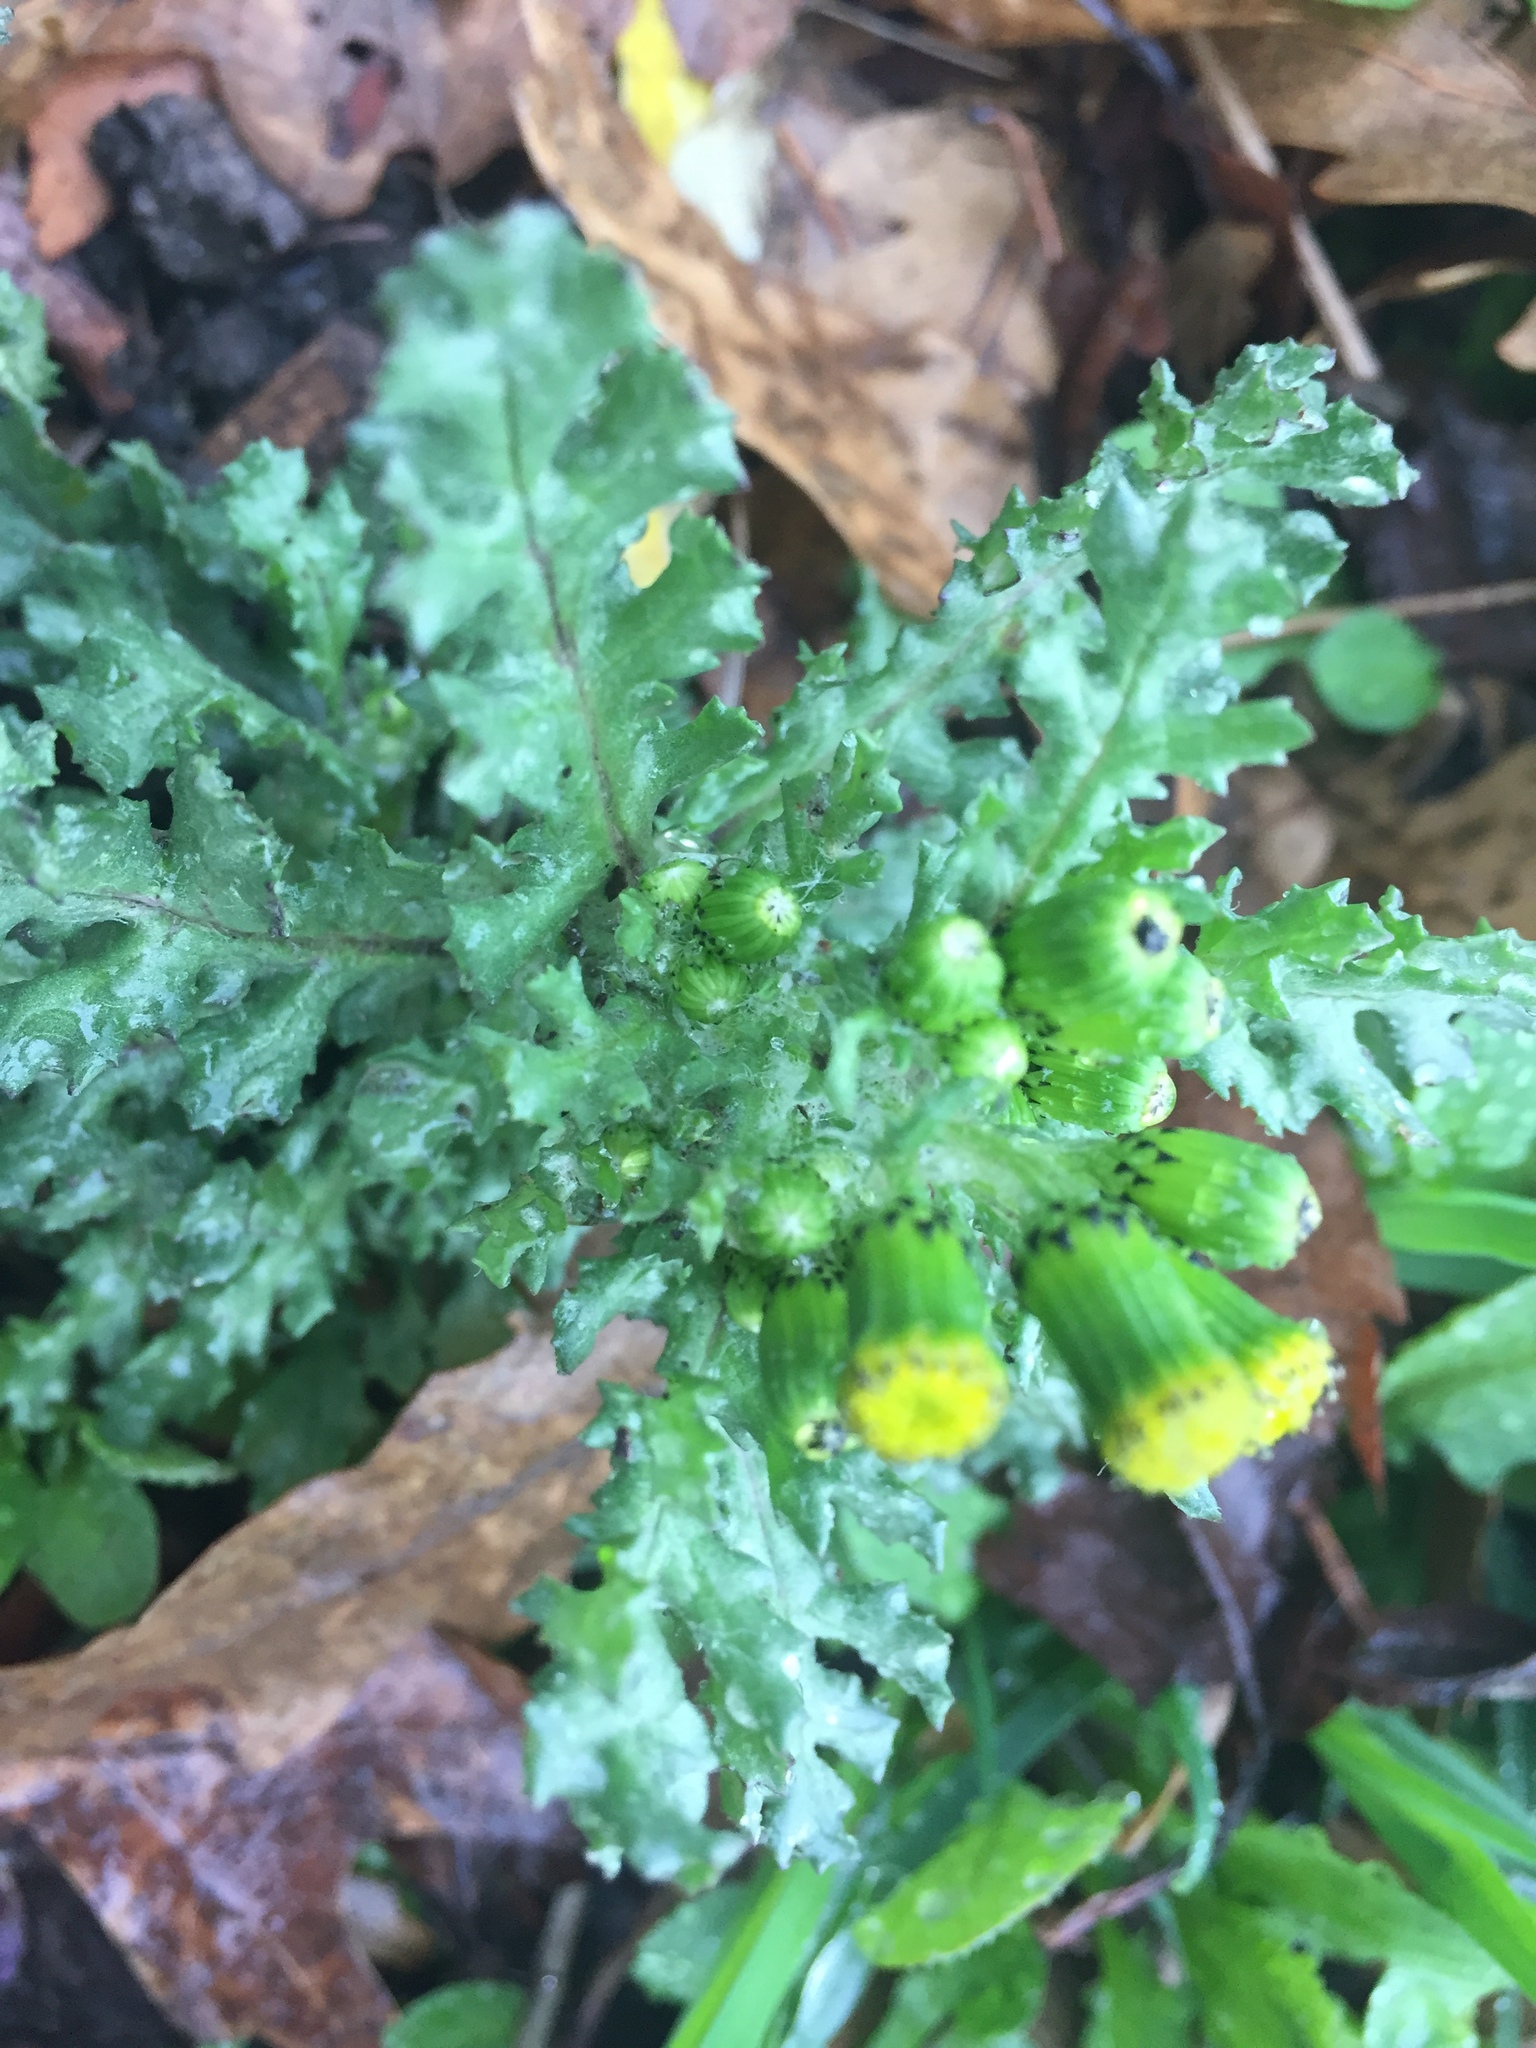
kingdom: Plantae
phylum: Tracheophyta
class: Magnoliopsida
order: Asterales
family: Asteraceae
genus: Senecio
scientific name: Senecio vulgaris
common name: Old-man-in-the-spring
